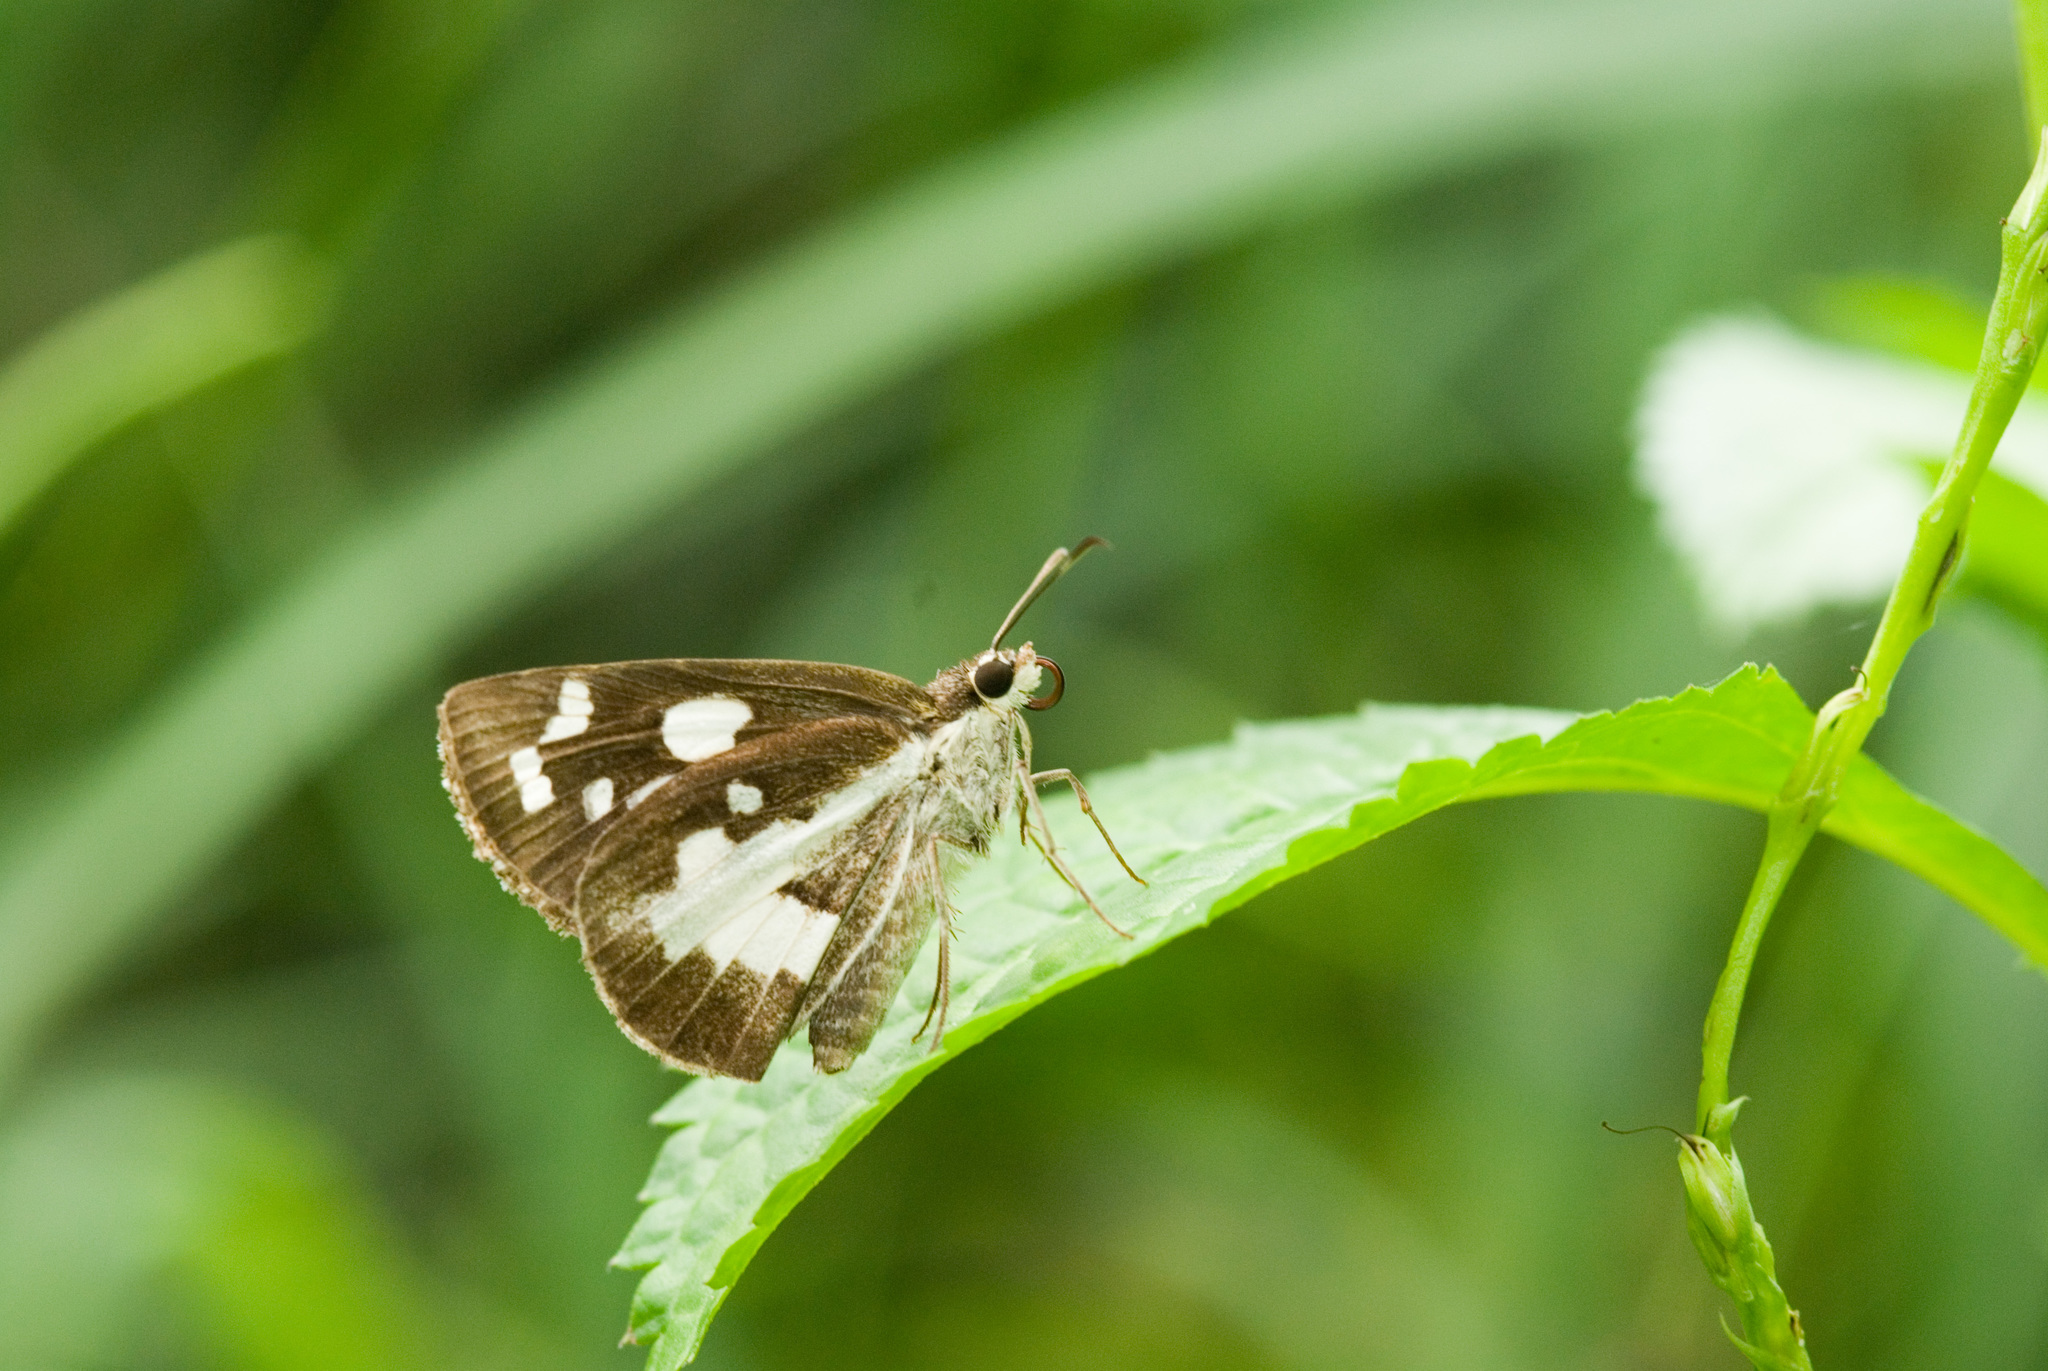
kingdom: Animalia
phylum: Arthropoda
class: Insecta
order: Lepidoptera
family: Hesperiidae
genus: Udaspes
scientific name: Udaspes folus
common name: Grass demon
